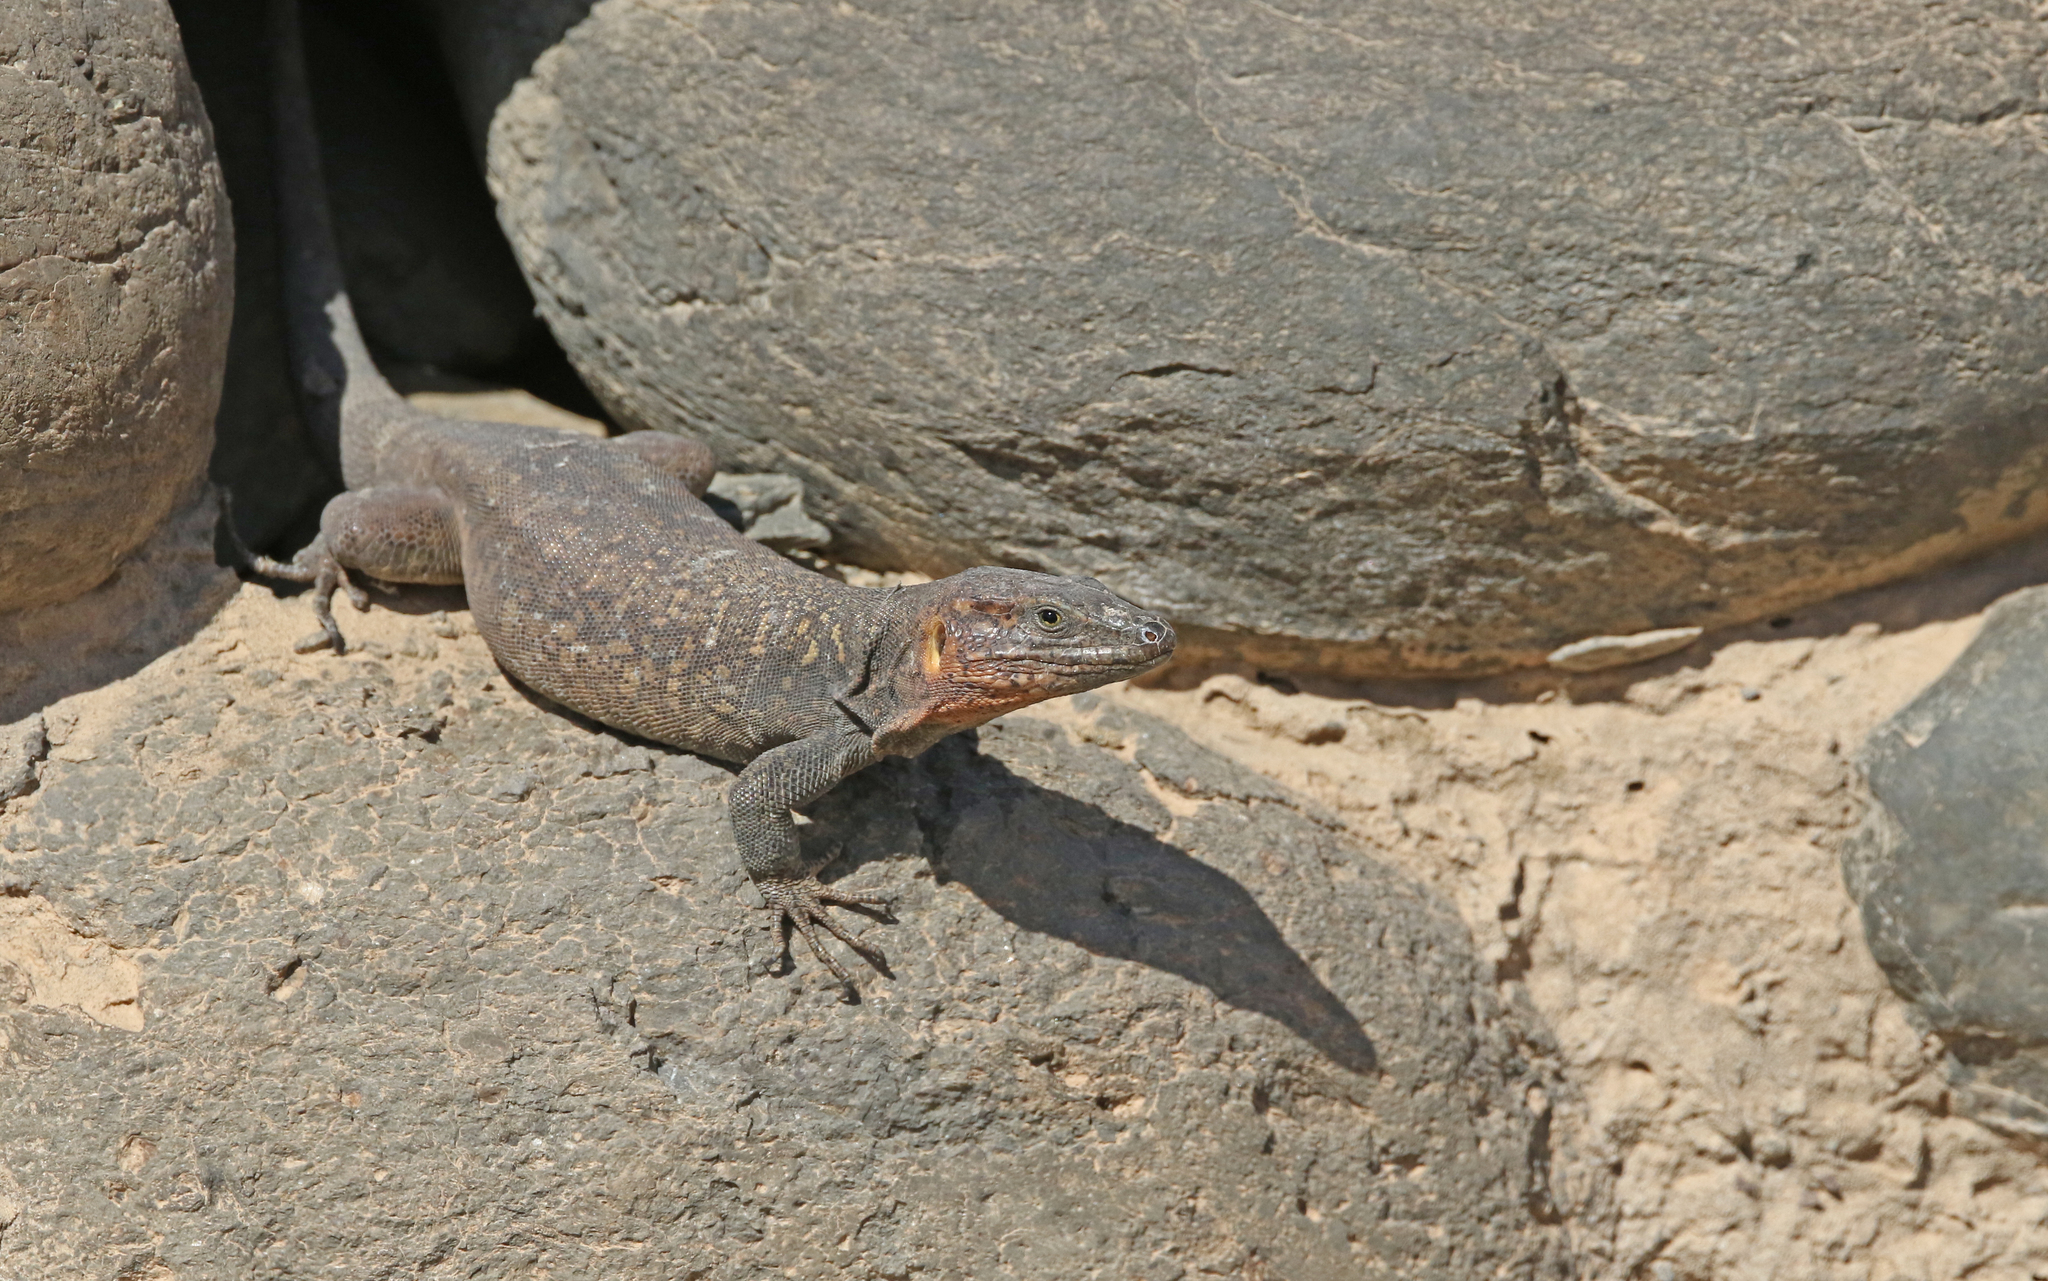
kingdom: Animalia
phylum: Chordata
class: Squamata
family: Lacertidae
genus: Gallotia
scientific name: Gallotia stehlini
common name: Gran canaria giant lizard
